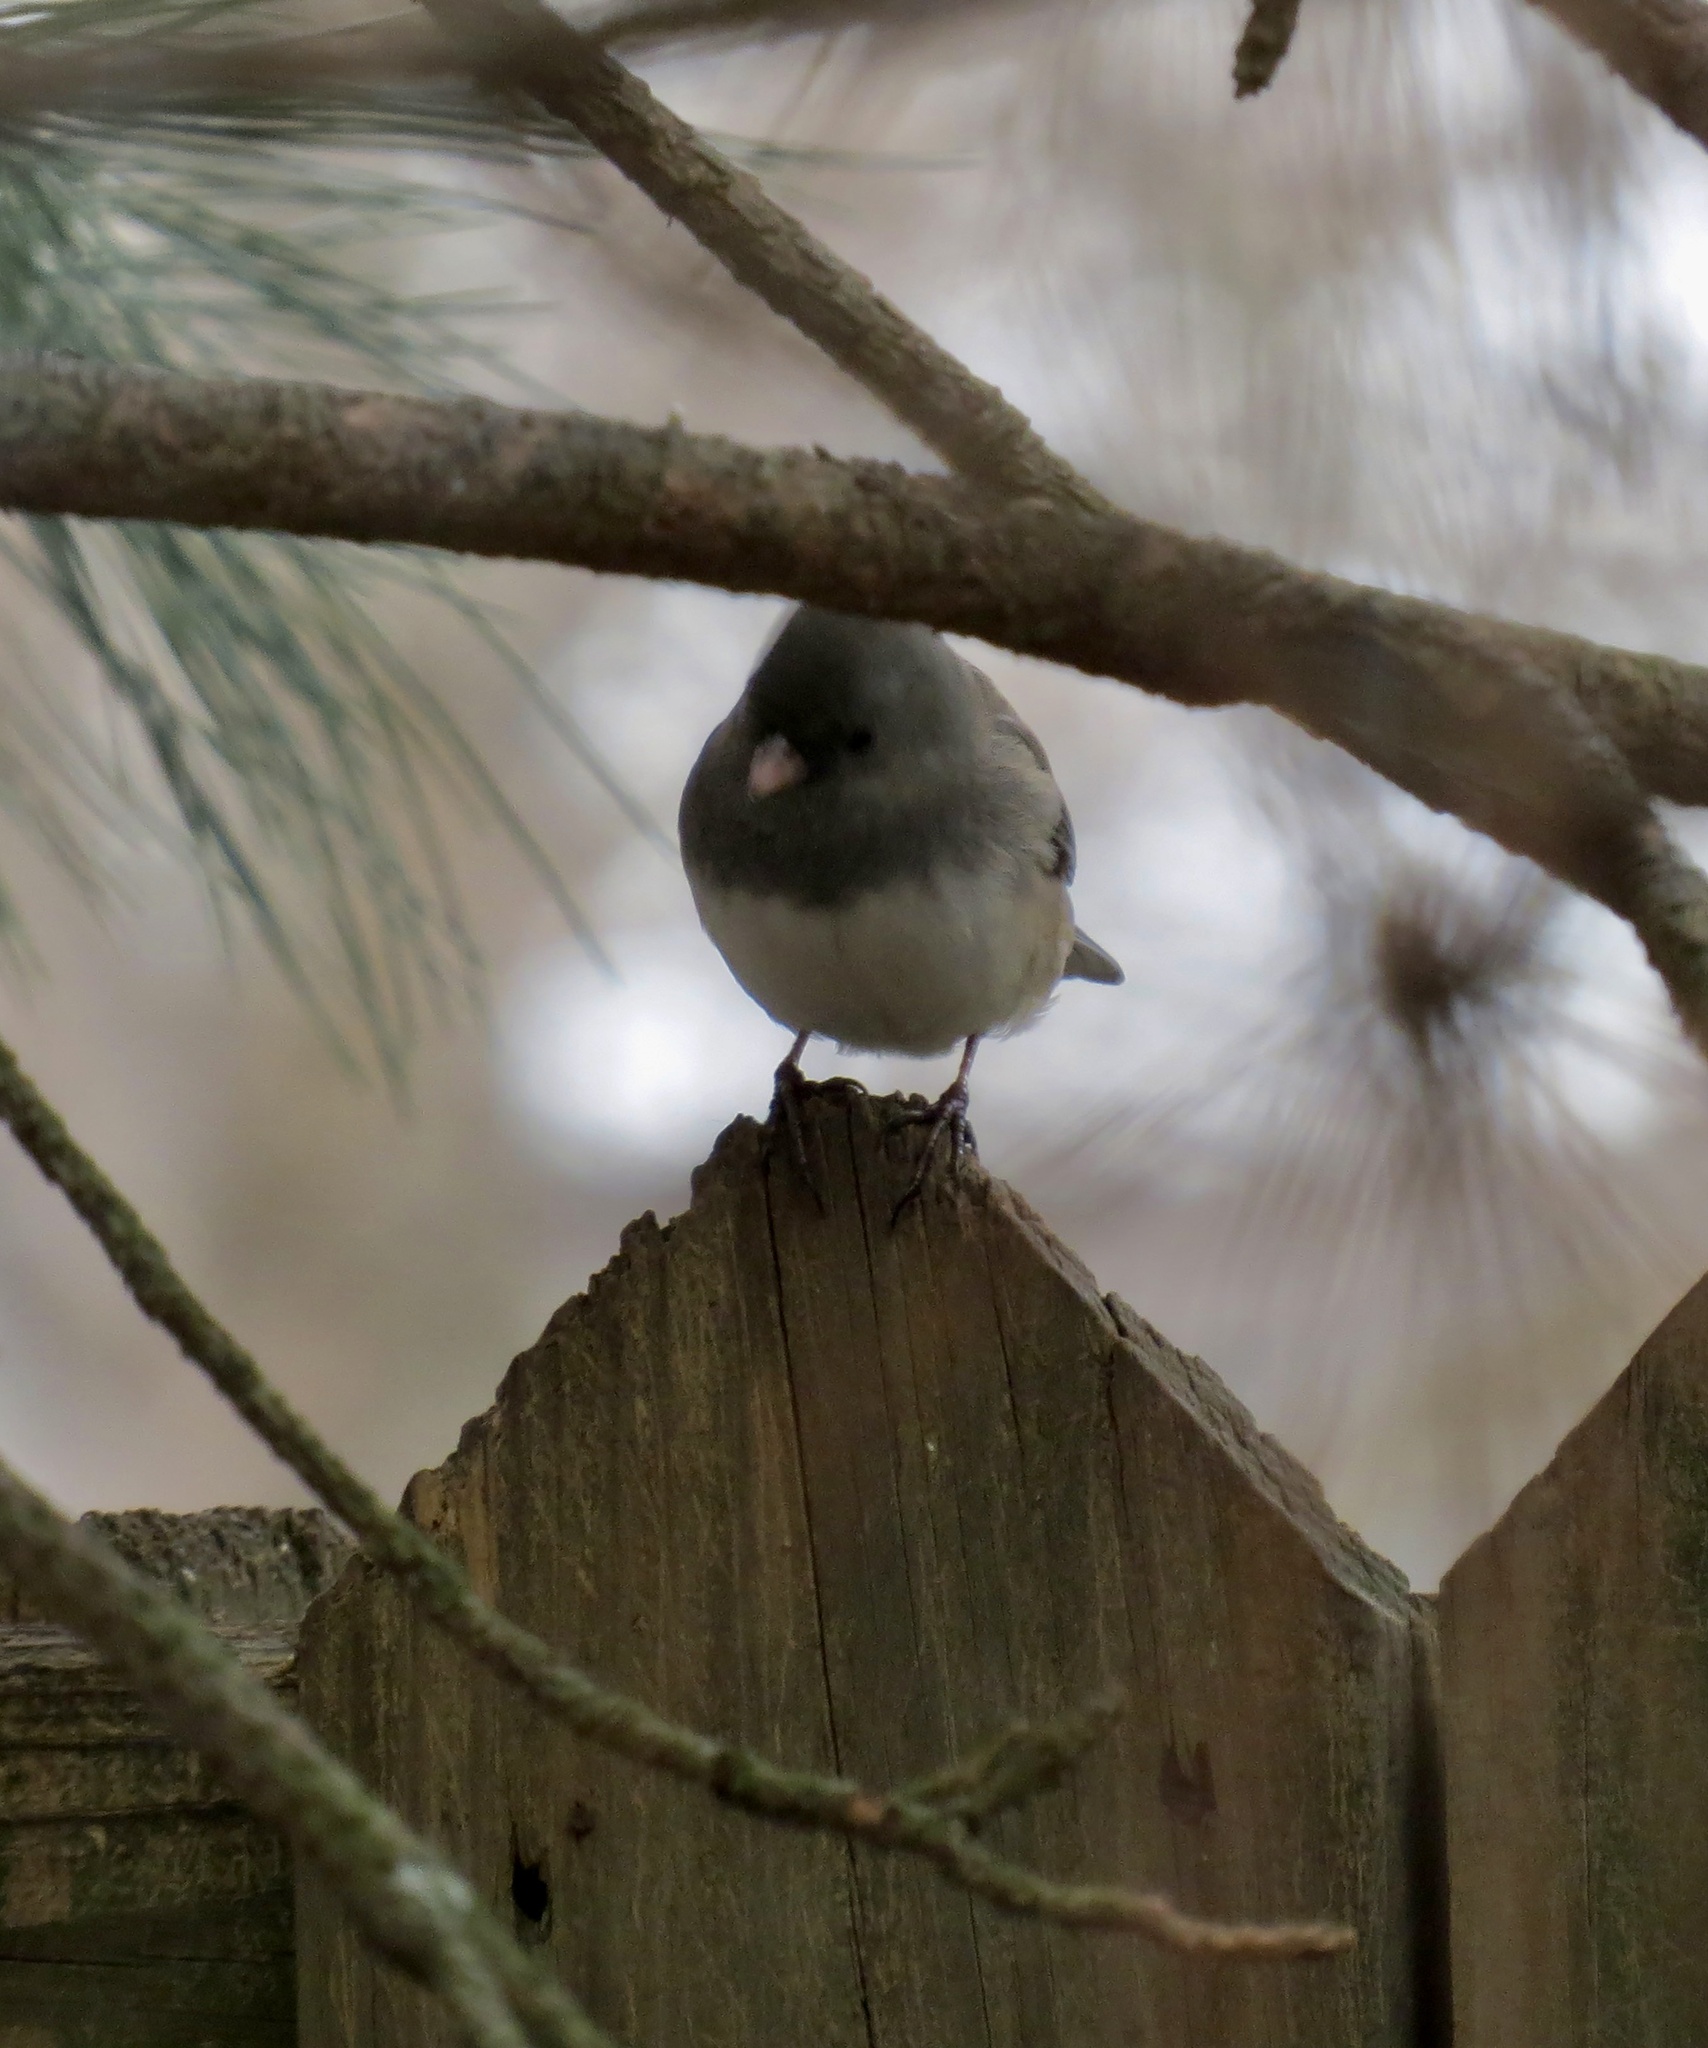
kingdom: Animalia
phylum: Chordata
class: Aves
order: Passeriformes
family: Passerellidae
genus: Junco
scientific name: Junco hyemalis
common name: Dark-eyed junco
